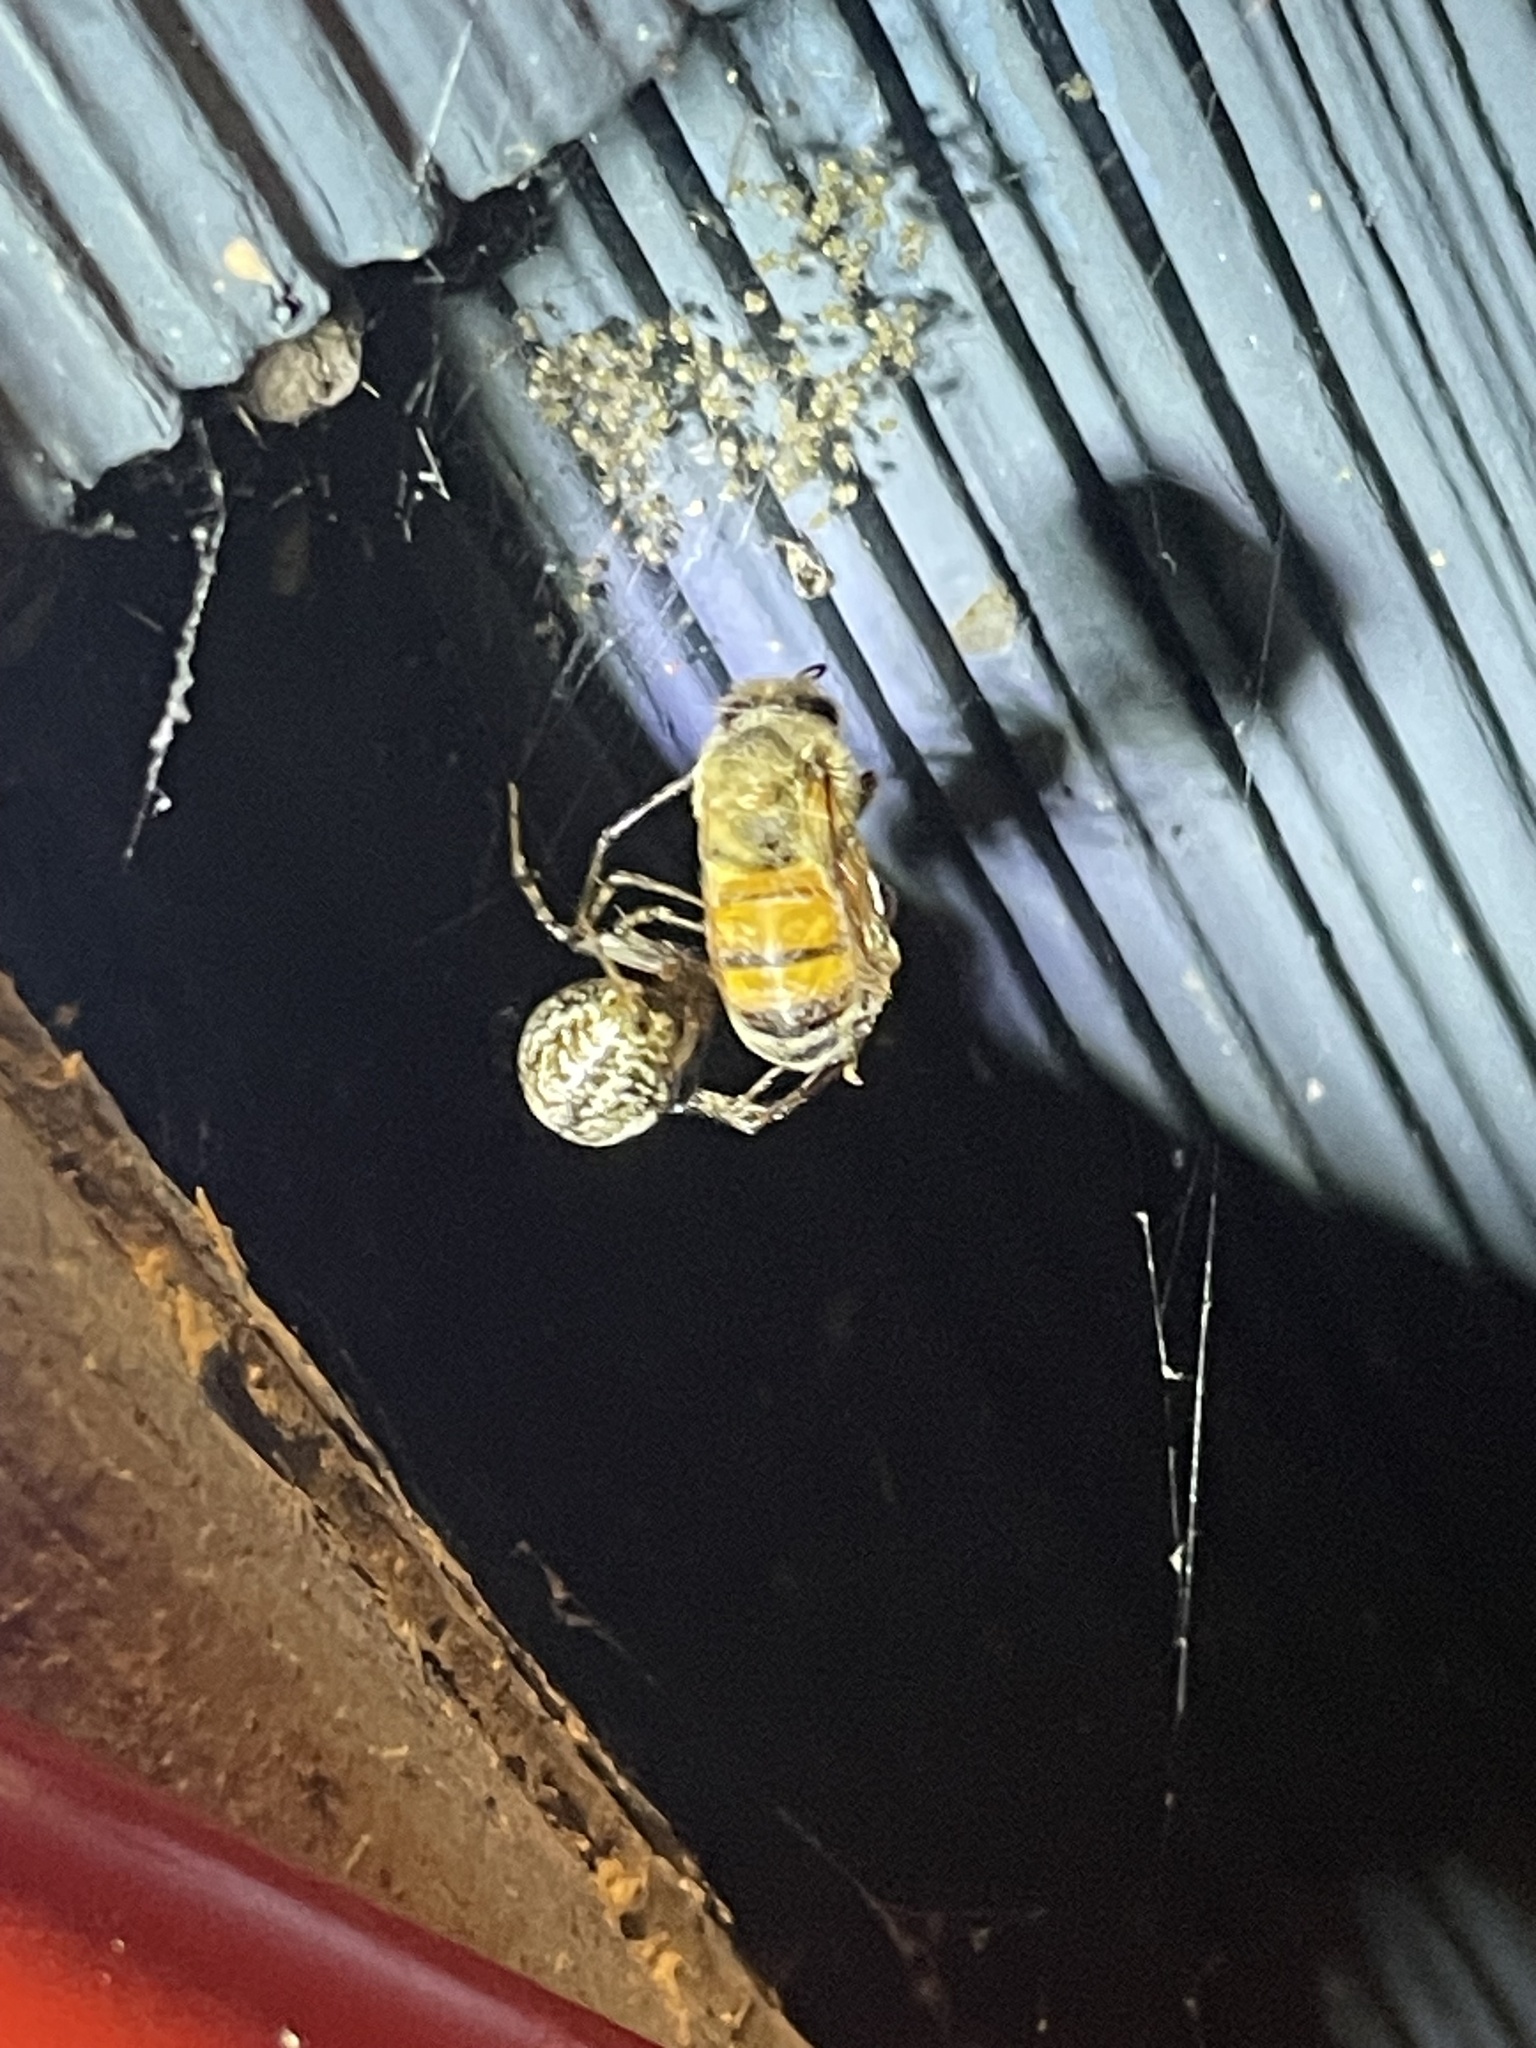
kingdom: Animalia
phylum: Arthropoda
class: Insecta
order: Hymenoptera
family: Apidae
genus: Apis
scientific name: Apis mellifera
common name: Honey bee
